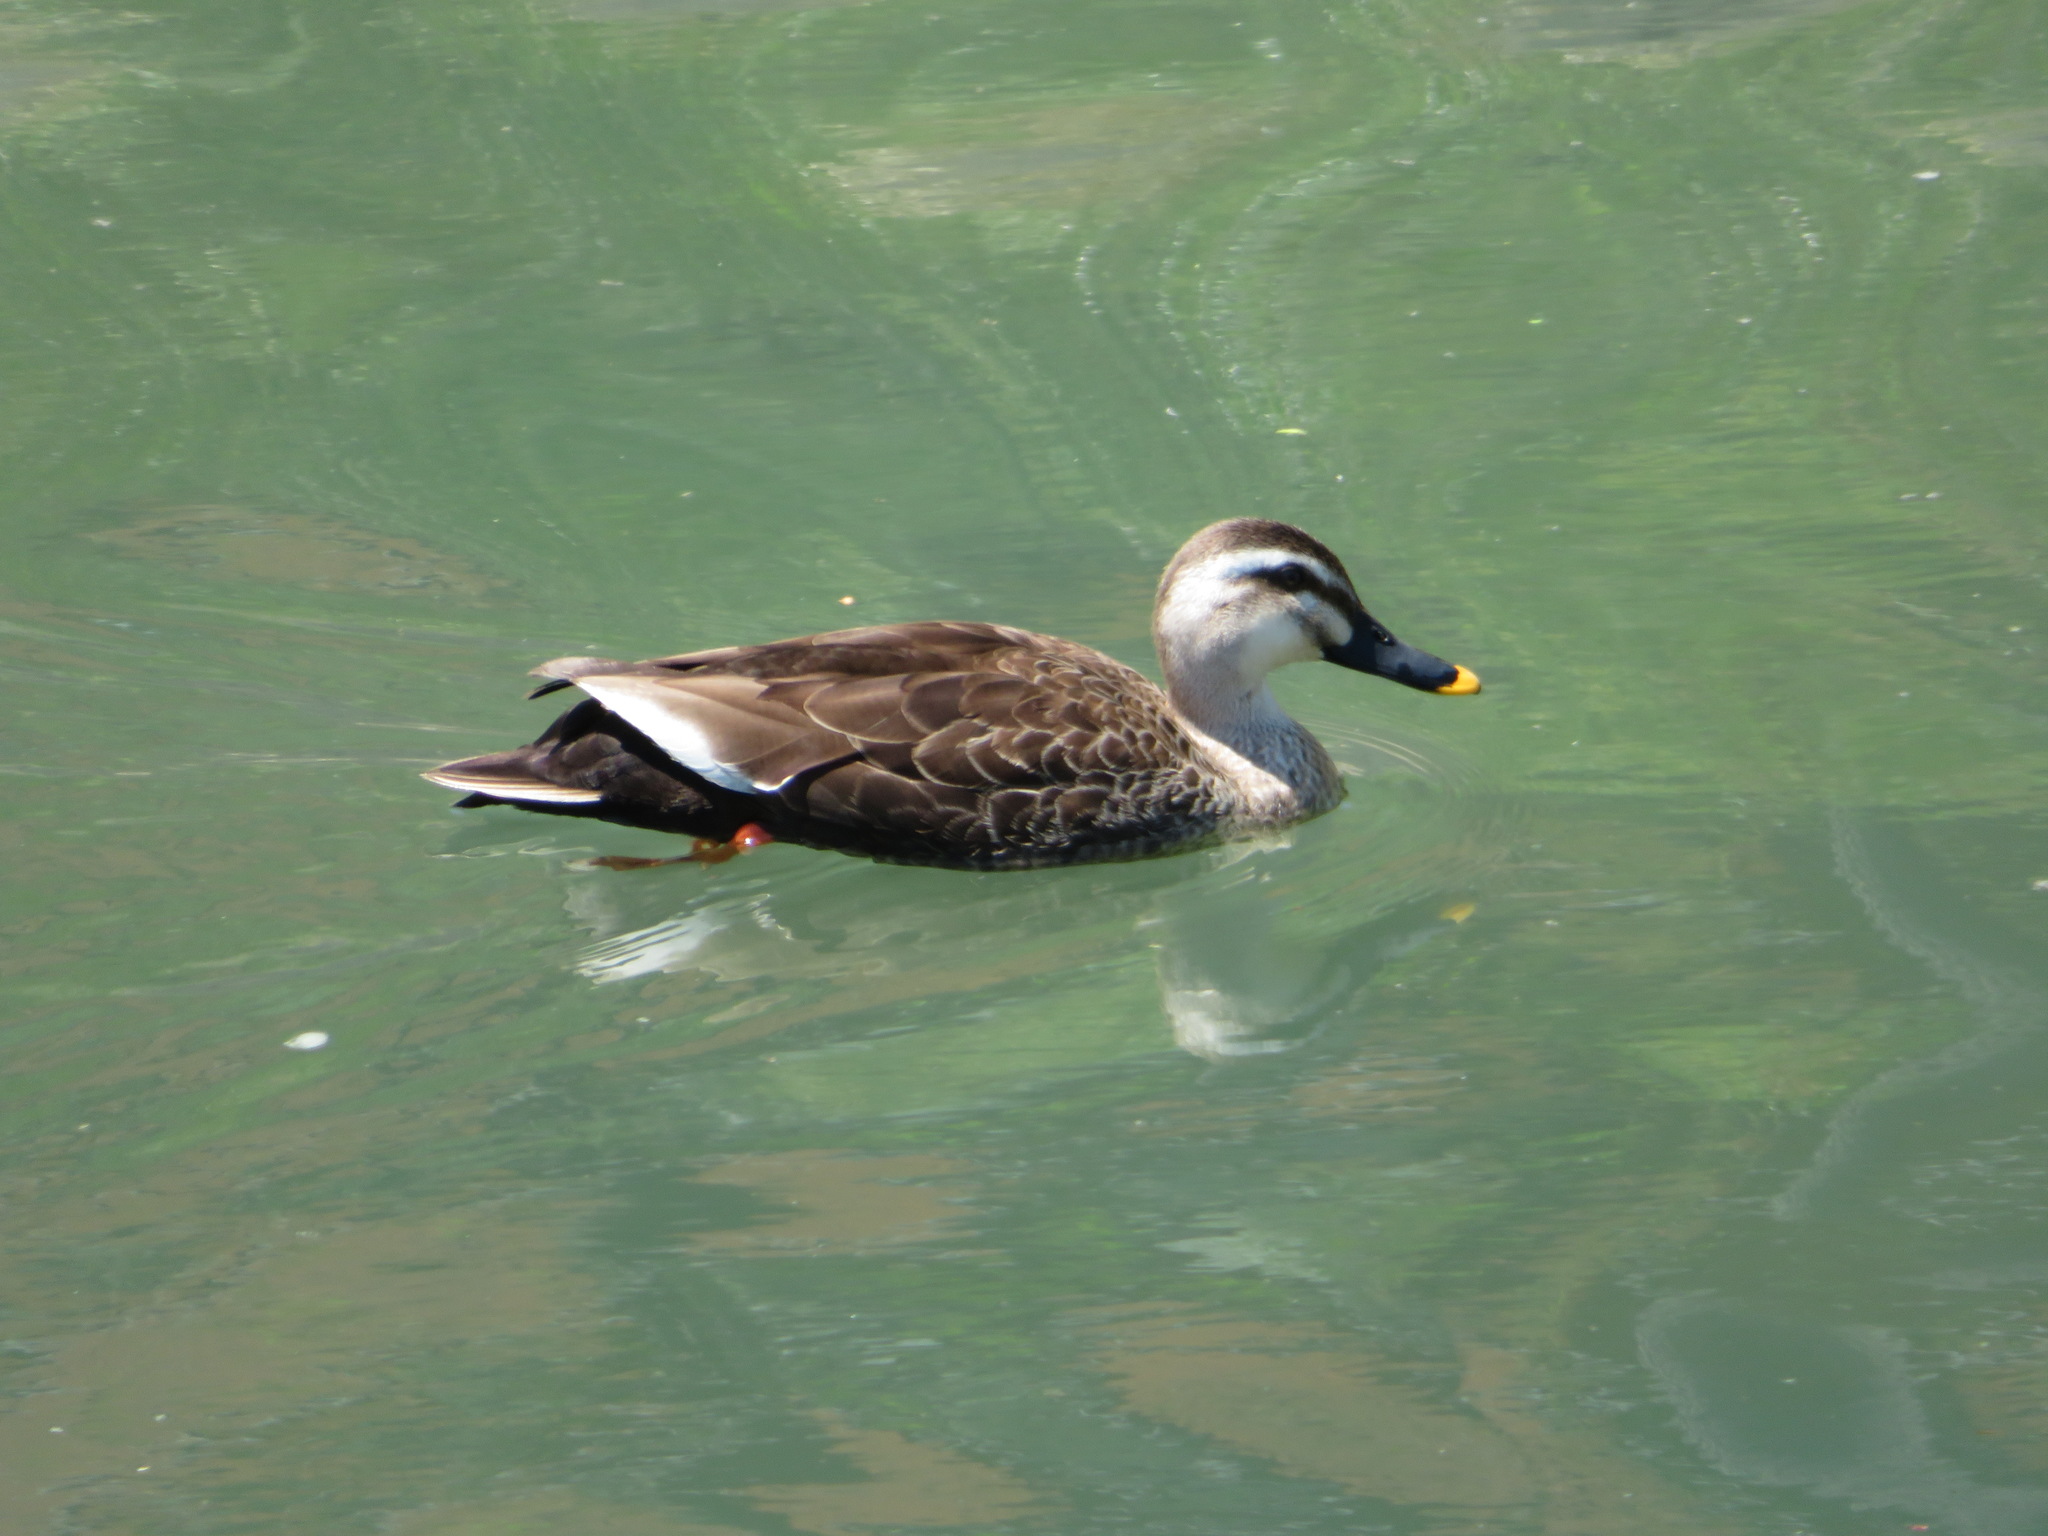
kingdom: Animalia
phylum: Chordata
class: Aves
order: Anseriformes
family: Anatidae
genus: Anas
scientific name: Anas zonorhyncha
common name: Eastern spot-billed duck
